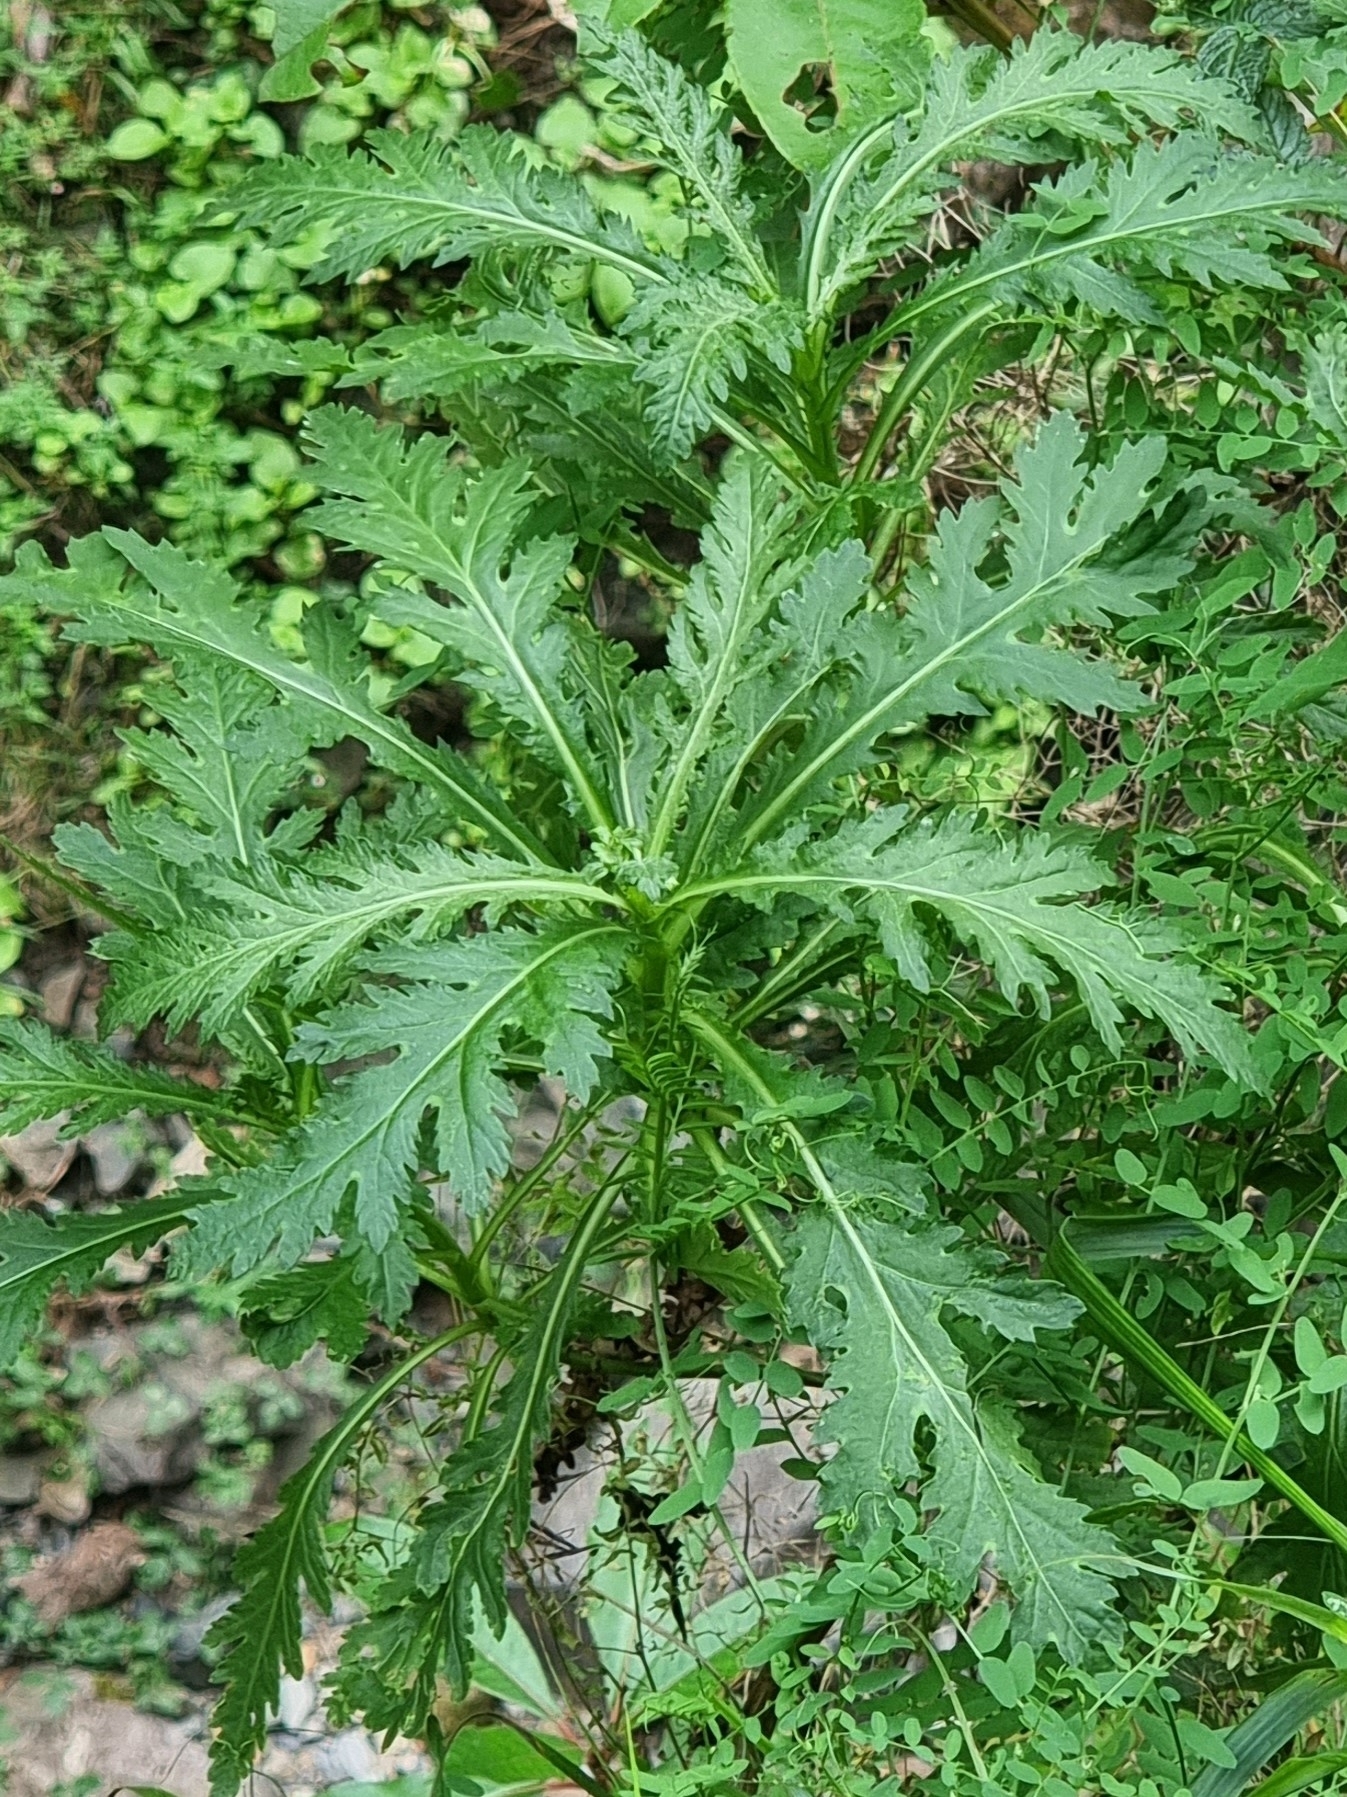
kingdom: Plantae
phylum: Tracheophyta
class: Magnoliopsida
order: Asterales
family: Asteraceae
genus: Argyranthemum
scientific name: Argyranthemum dissectum
